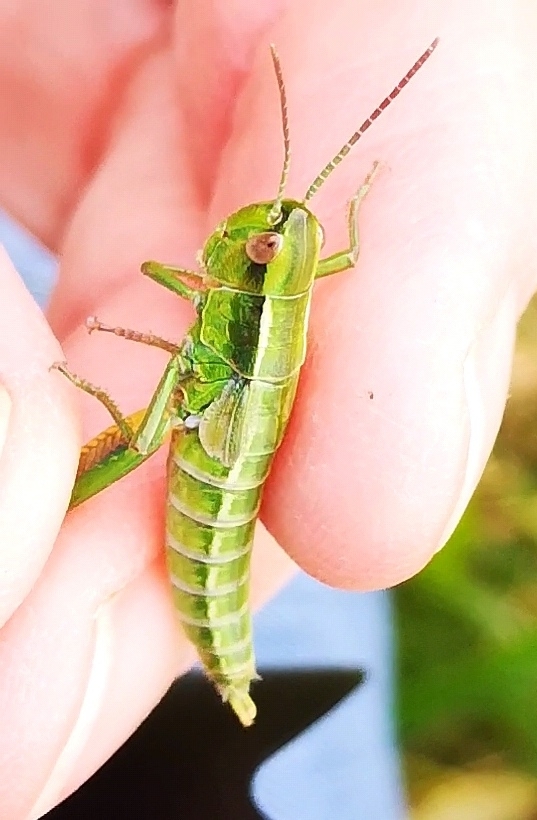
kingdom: Animalia
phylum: Arthropoda
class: Insecta
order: Orthoptera
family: Acrididae
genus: Euthystira
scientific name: Euthystira brachyptera
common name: Small gold grasshopper
